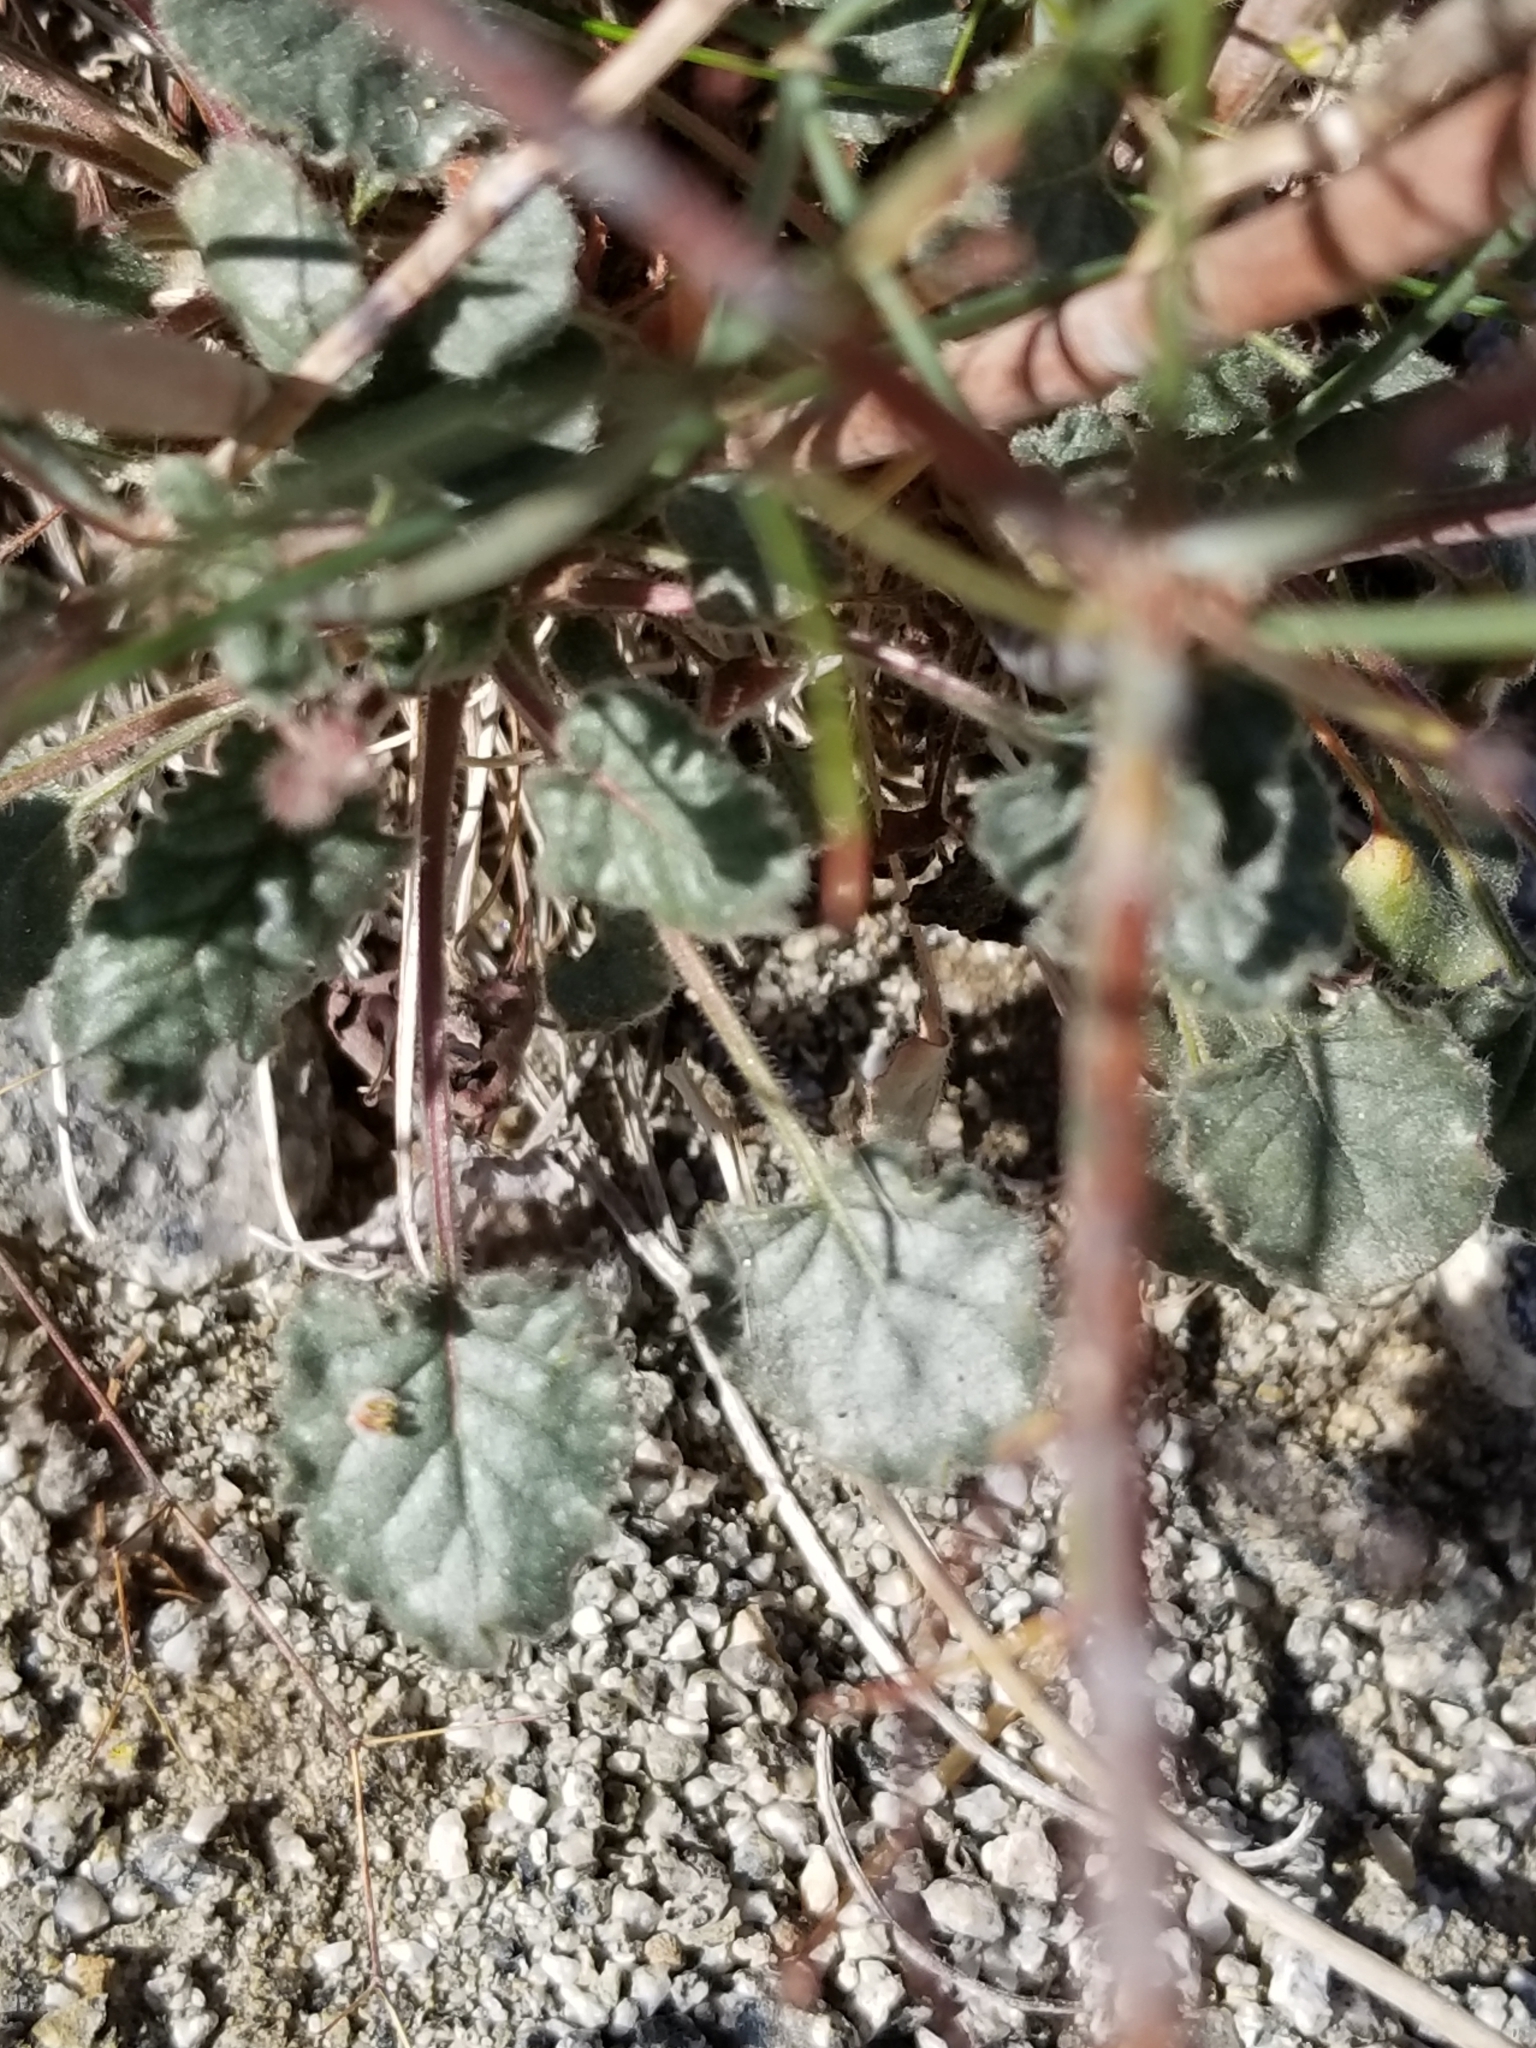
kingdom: Plantae
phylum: Tracheophyta
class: Magnoliopsida
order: Caryophyllales
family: Polygonaceae
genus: Eriogonum
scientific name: Eriogonum inflatum
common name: Desert trumpet
